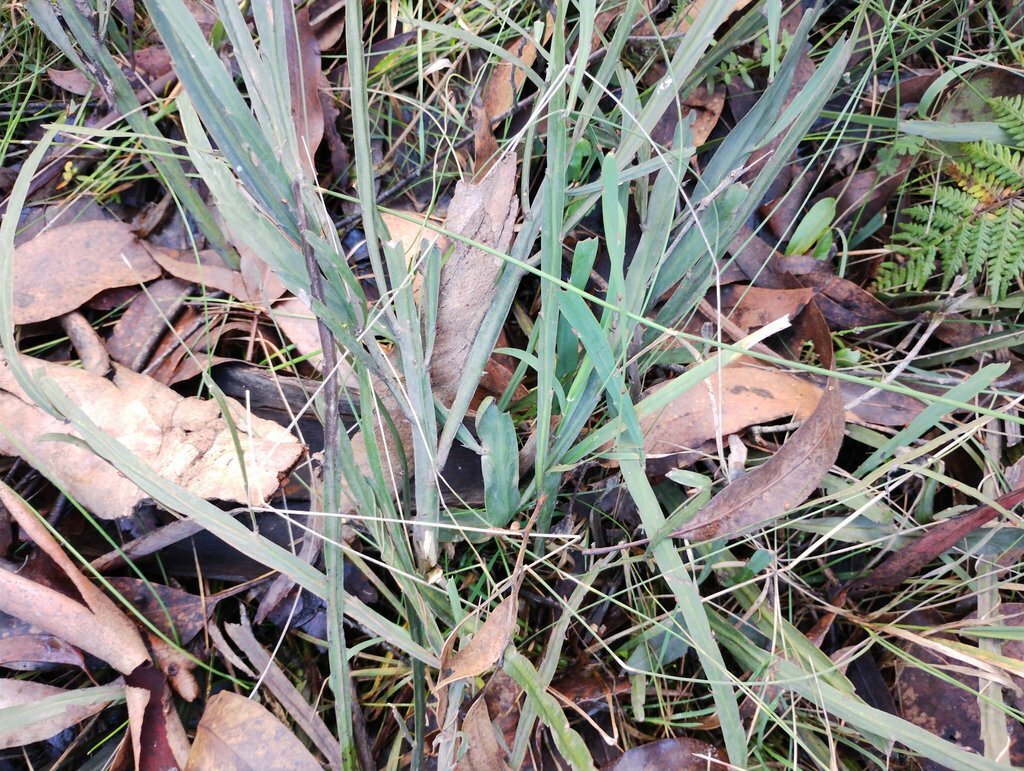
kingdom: Plantae
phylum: Tracheophyta
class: Magnoliopsida
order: Fabales
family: Fabaceae
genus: Bossiaea
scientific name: Bossiaea vombata
